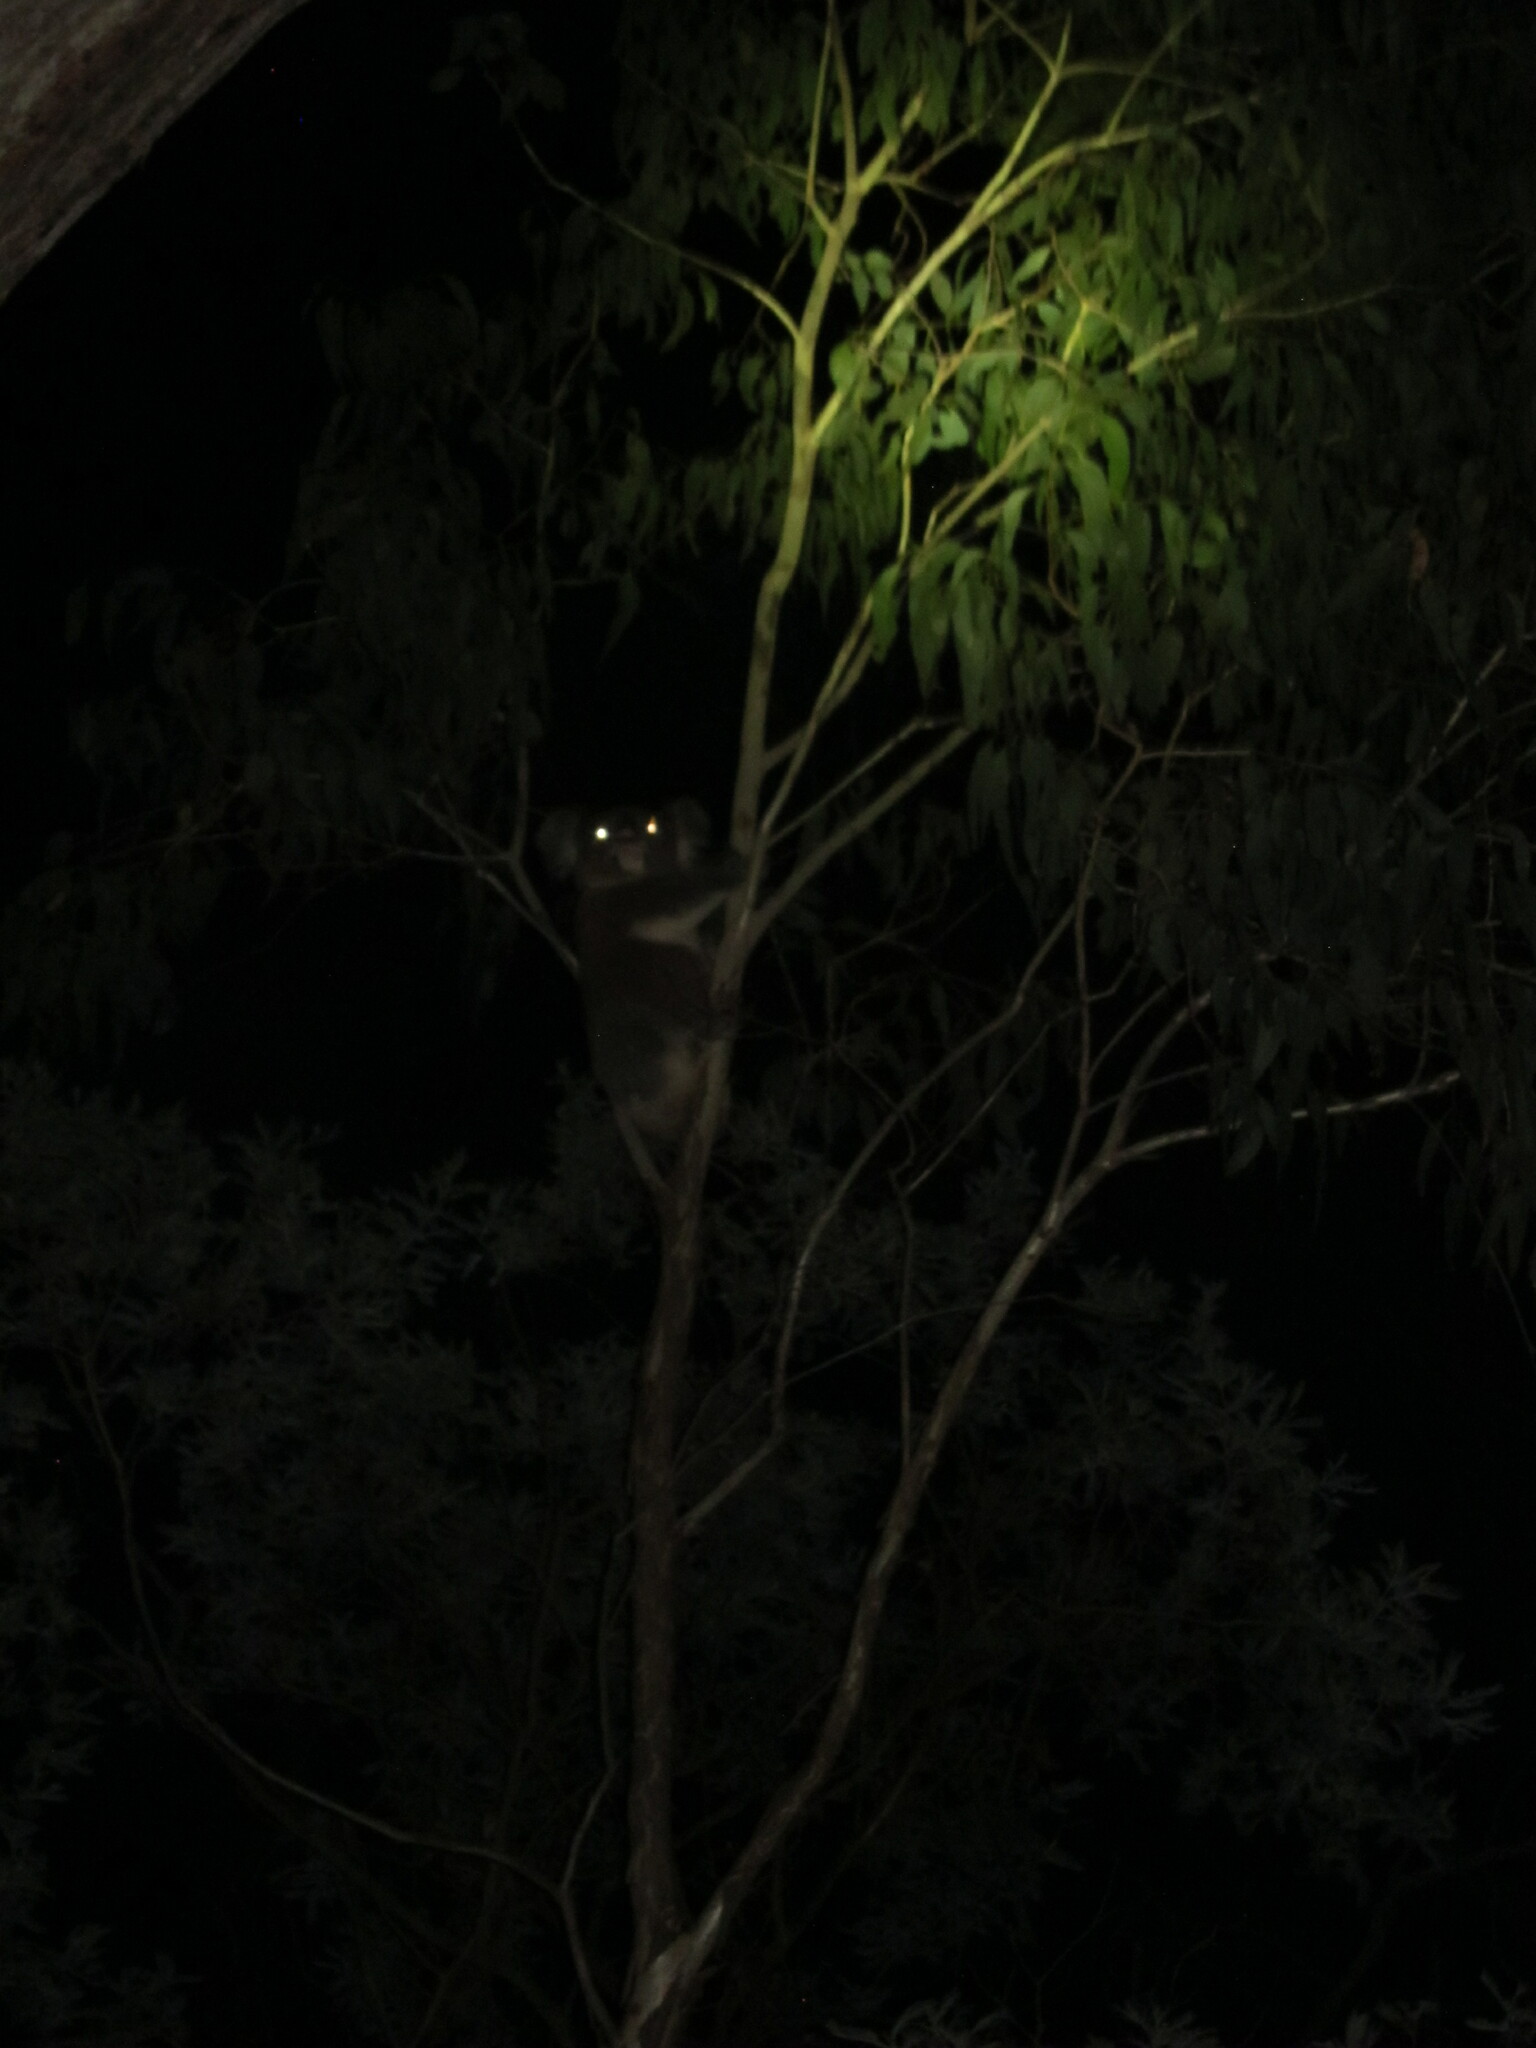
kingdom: Animalia
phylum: Chordata
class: Mammalia
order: Diprotodontia
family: Phascolarctidae
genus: Phascolarctos
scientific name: Phascolarctos cinereus
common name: Koala
